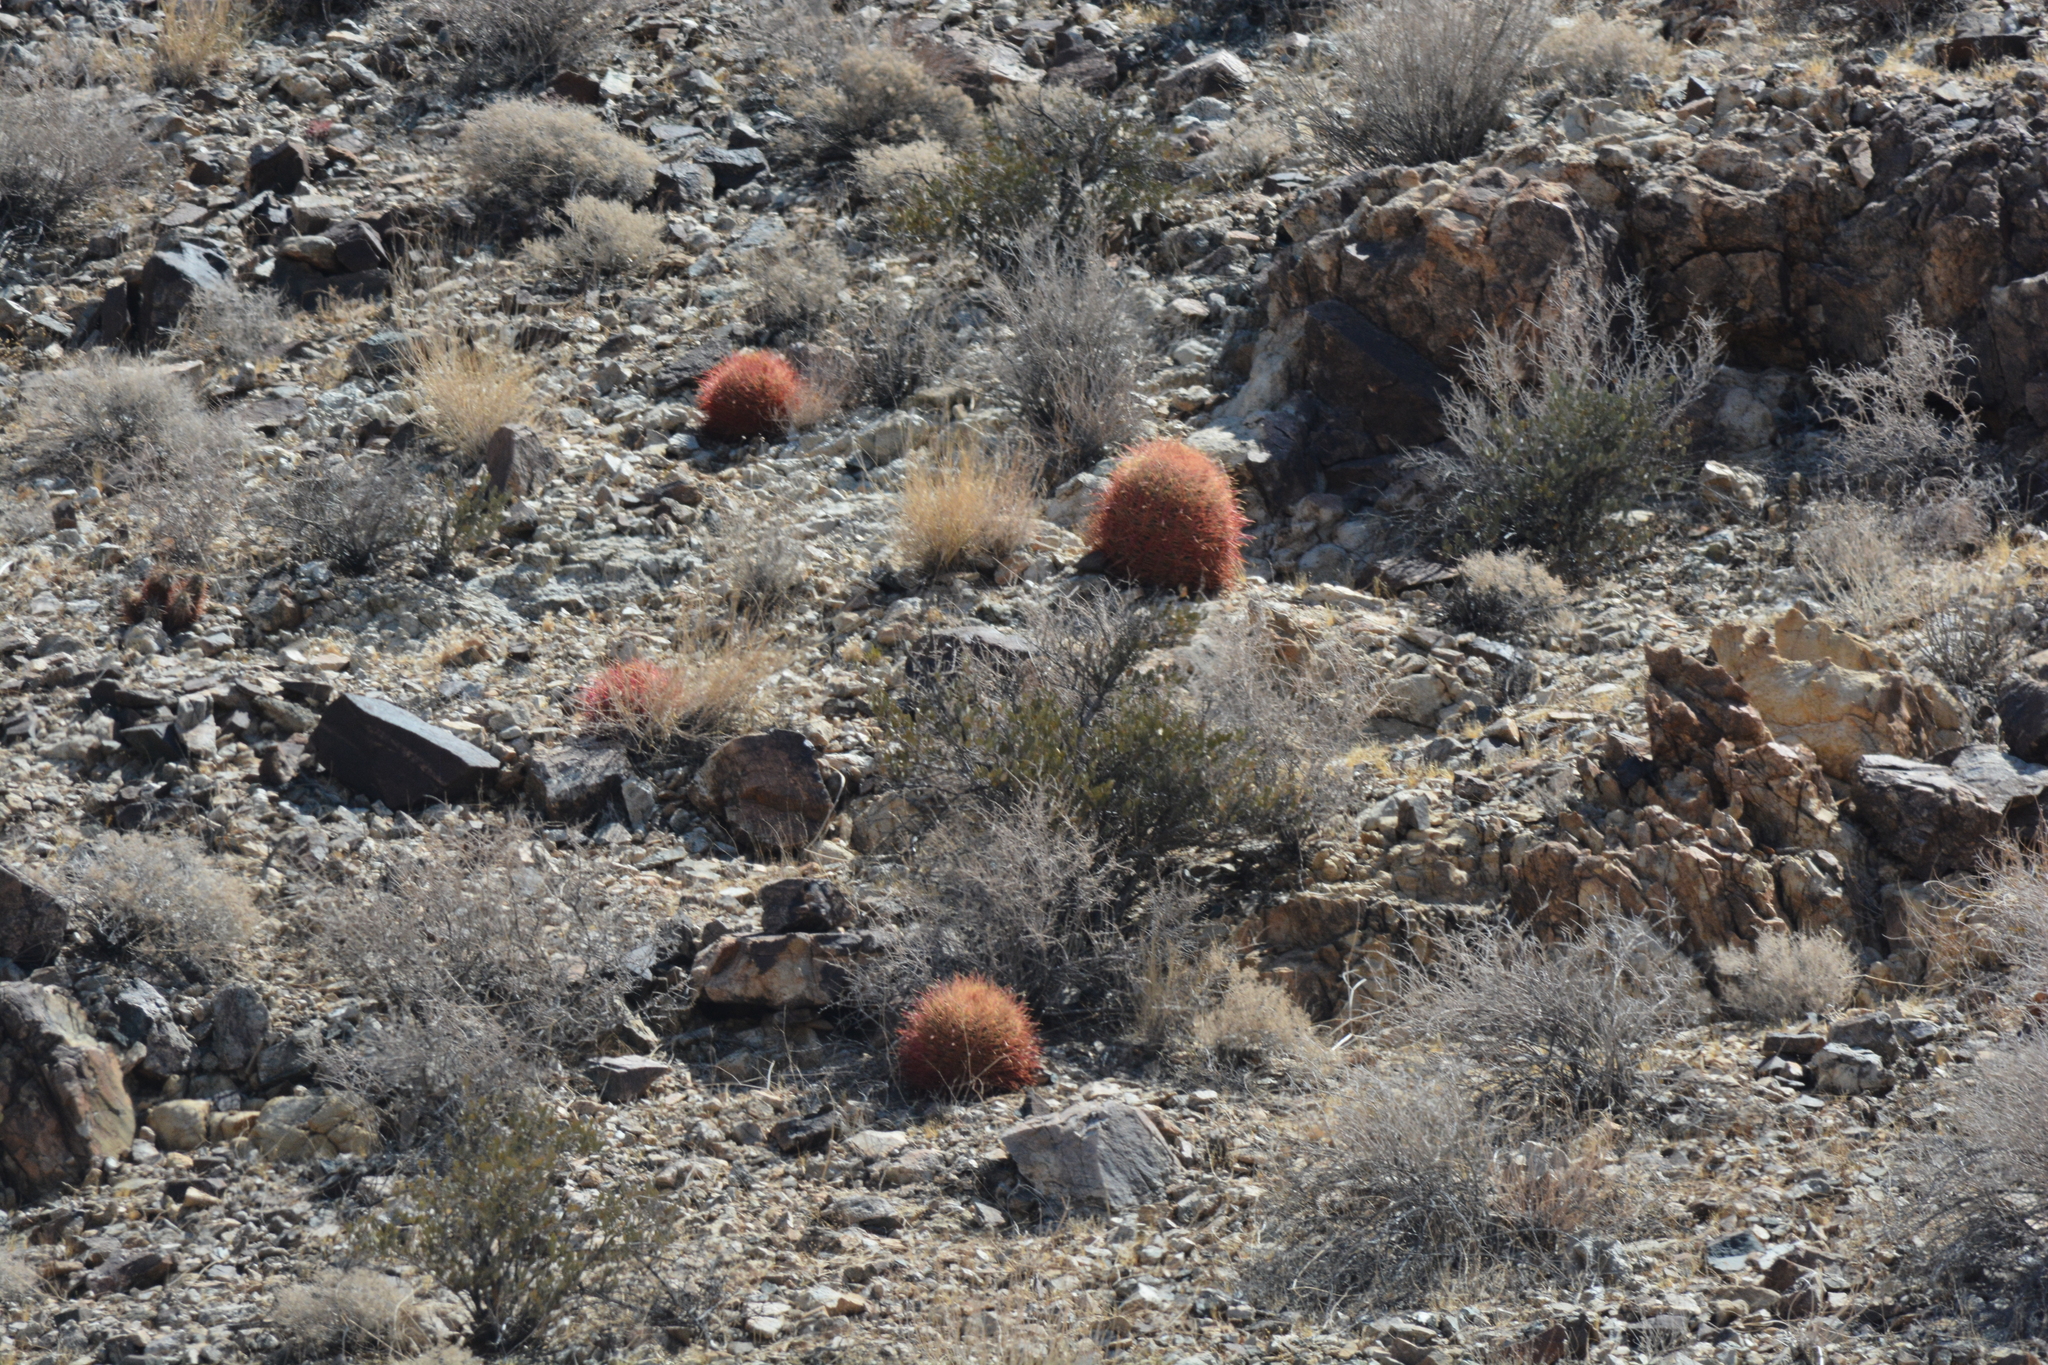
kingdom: Plantae
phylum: Tracheophyta
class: Magnoliopsida
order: Caryophyllales
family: Cactaceae
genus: Ferocactus
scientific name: Ferocactus cylindraceus
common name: California barrel cactus
